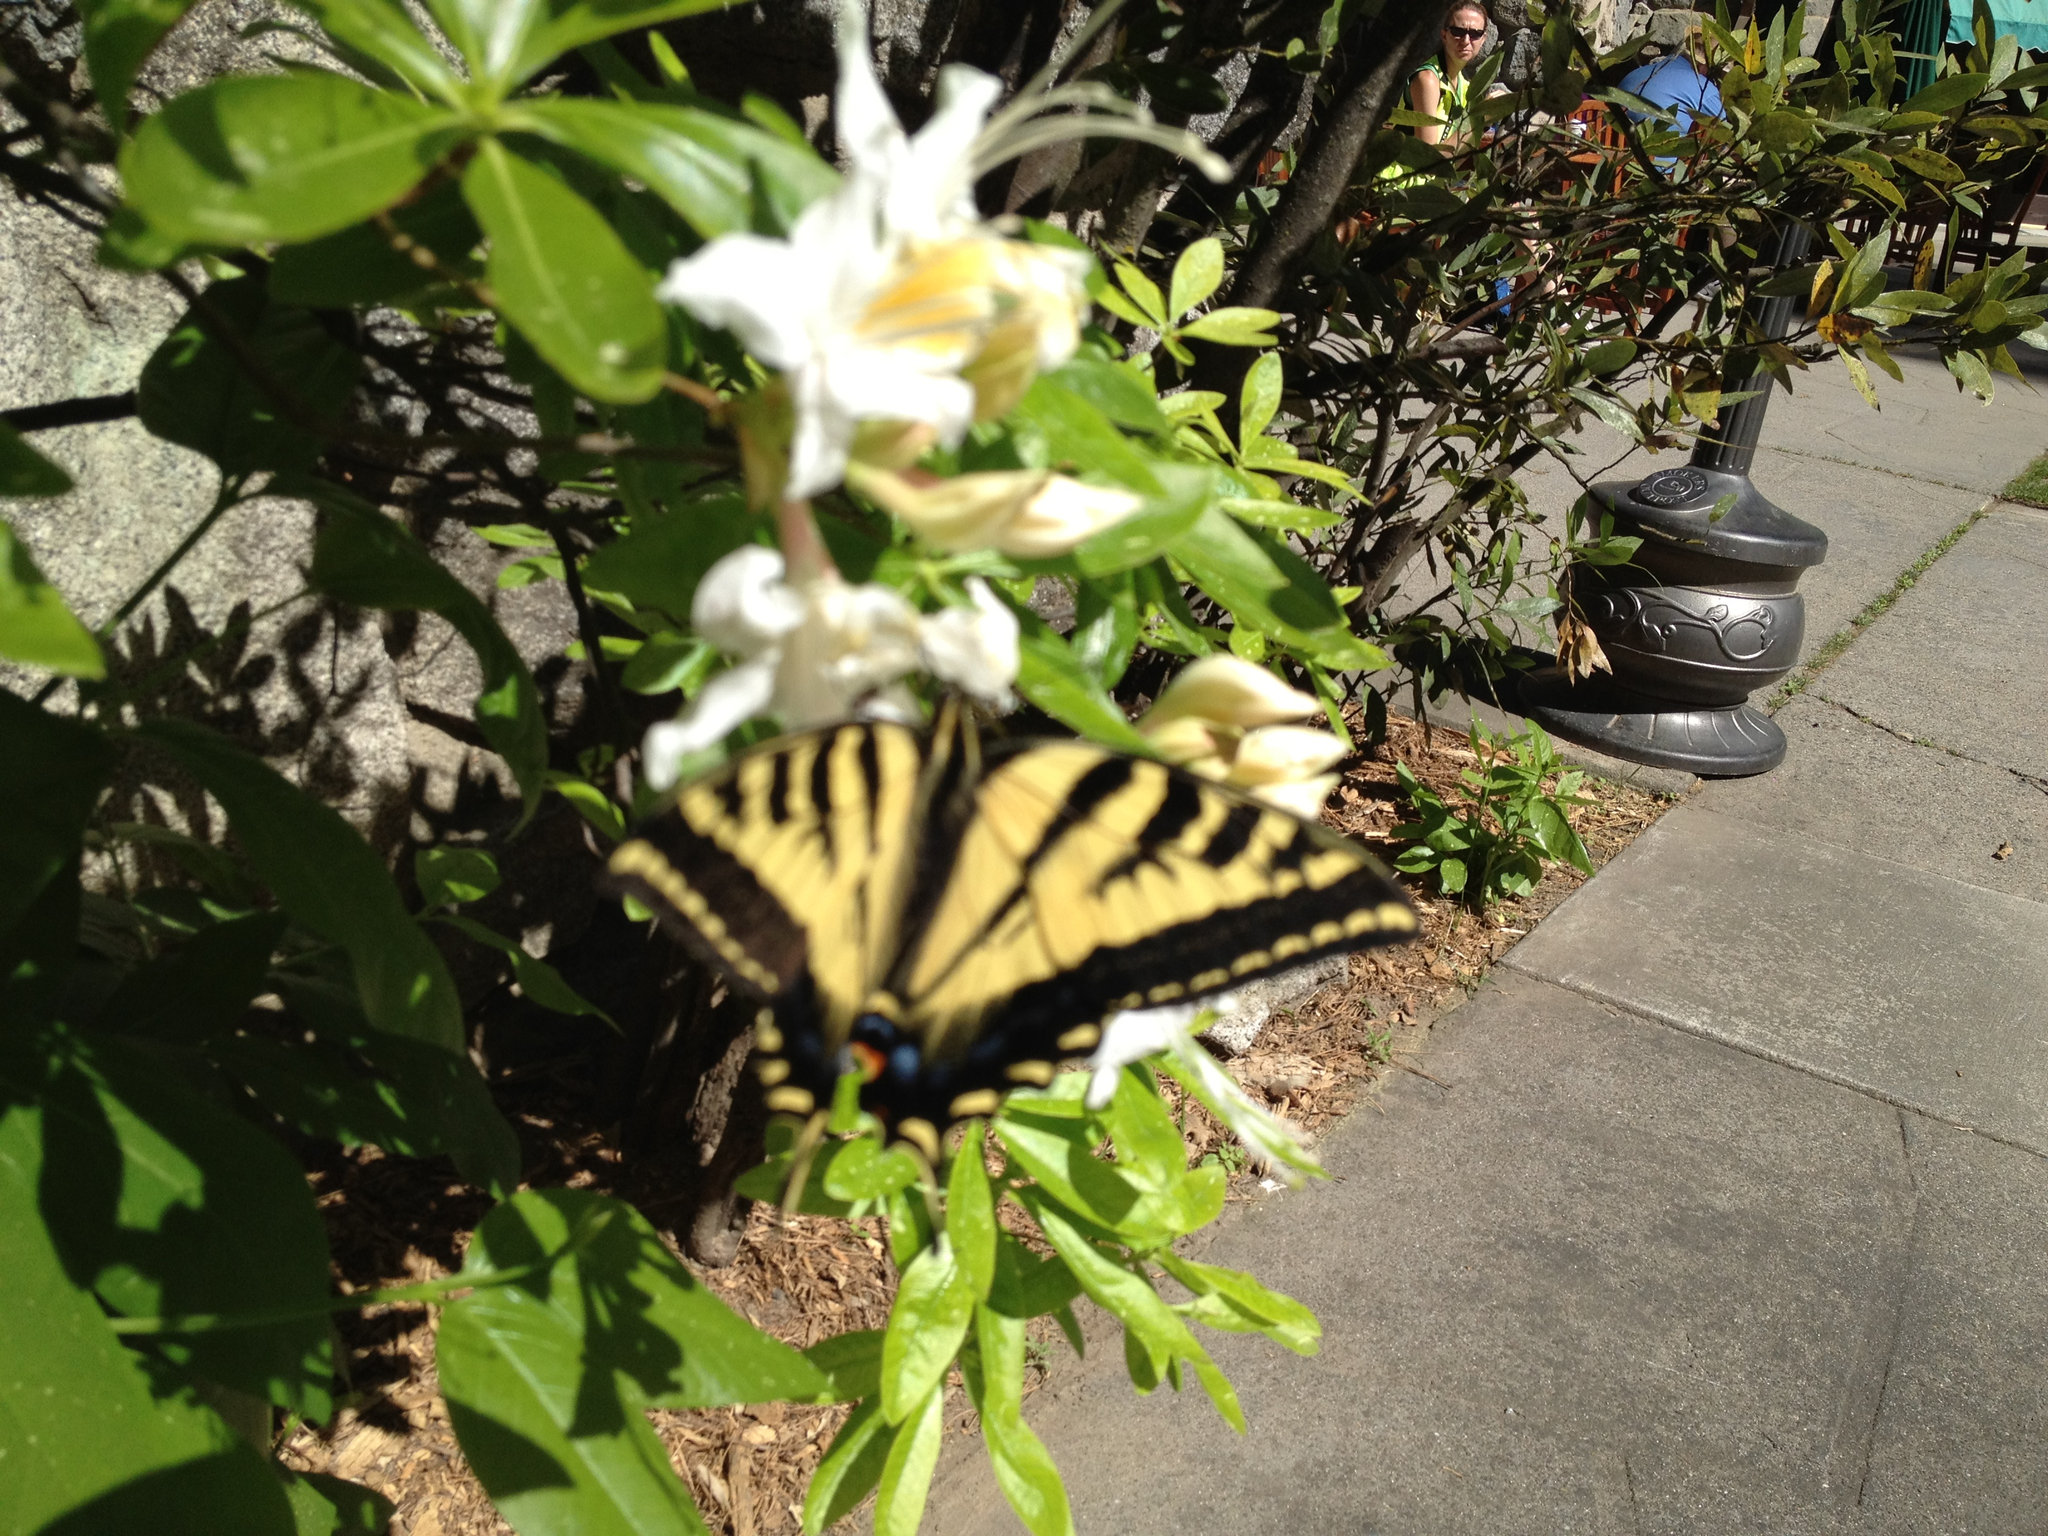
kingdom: Animalia
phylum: Arthropoda
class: Insecta
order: Lepidoptera
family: Papilionidae
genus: Papilio
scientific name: Papilio rutulus
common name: Western tiger swallowtail
